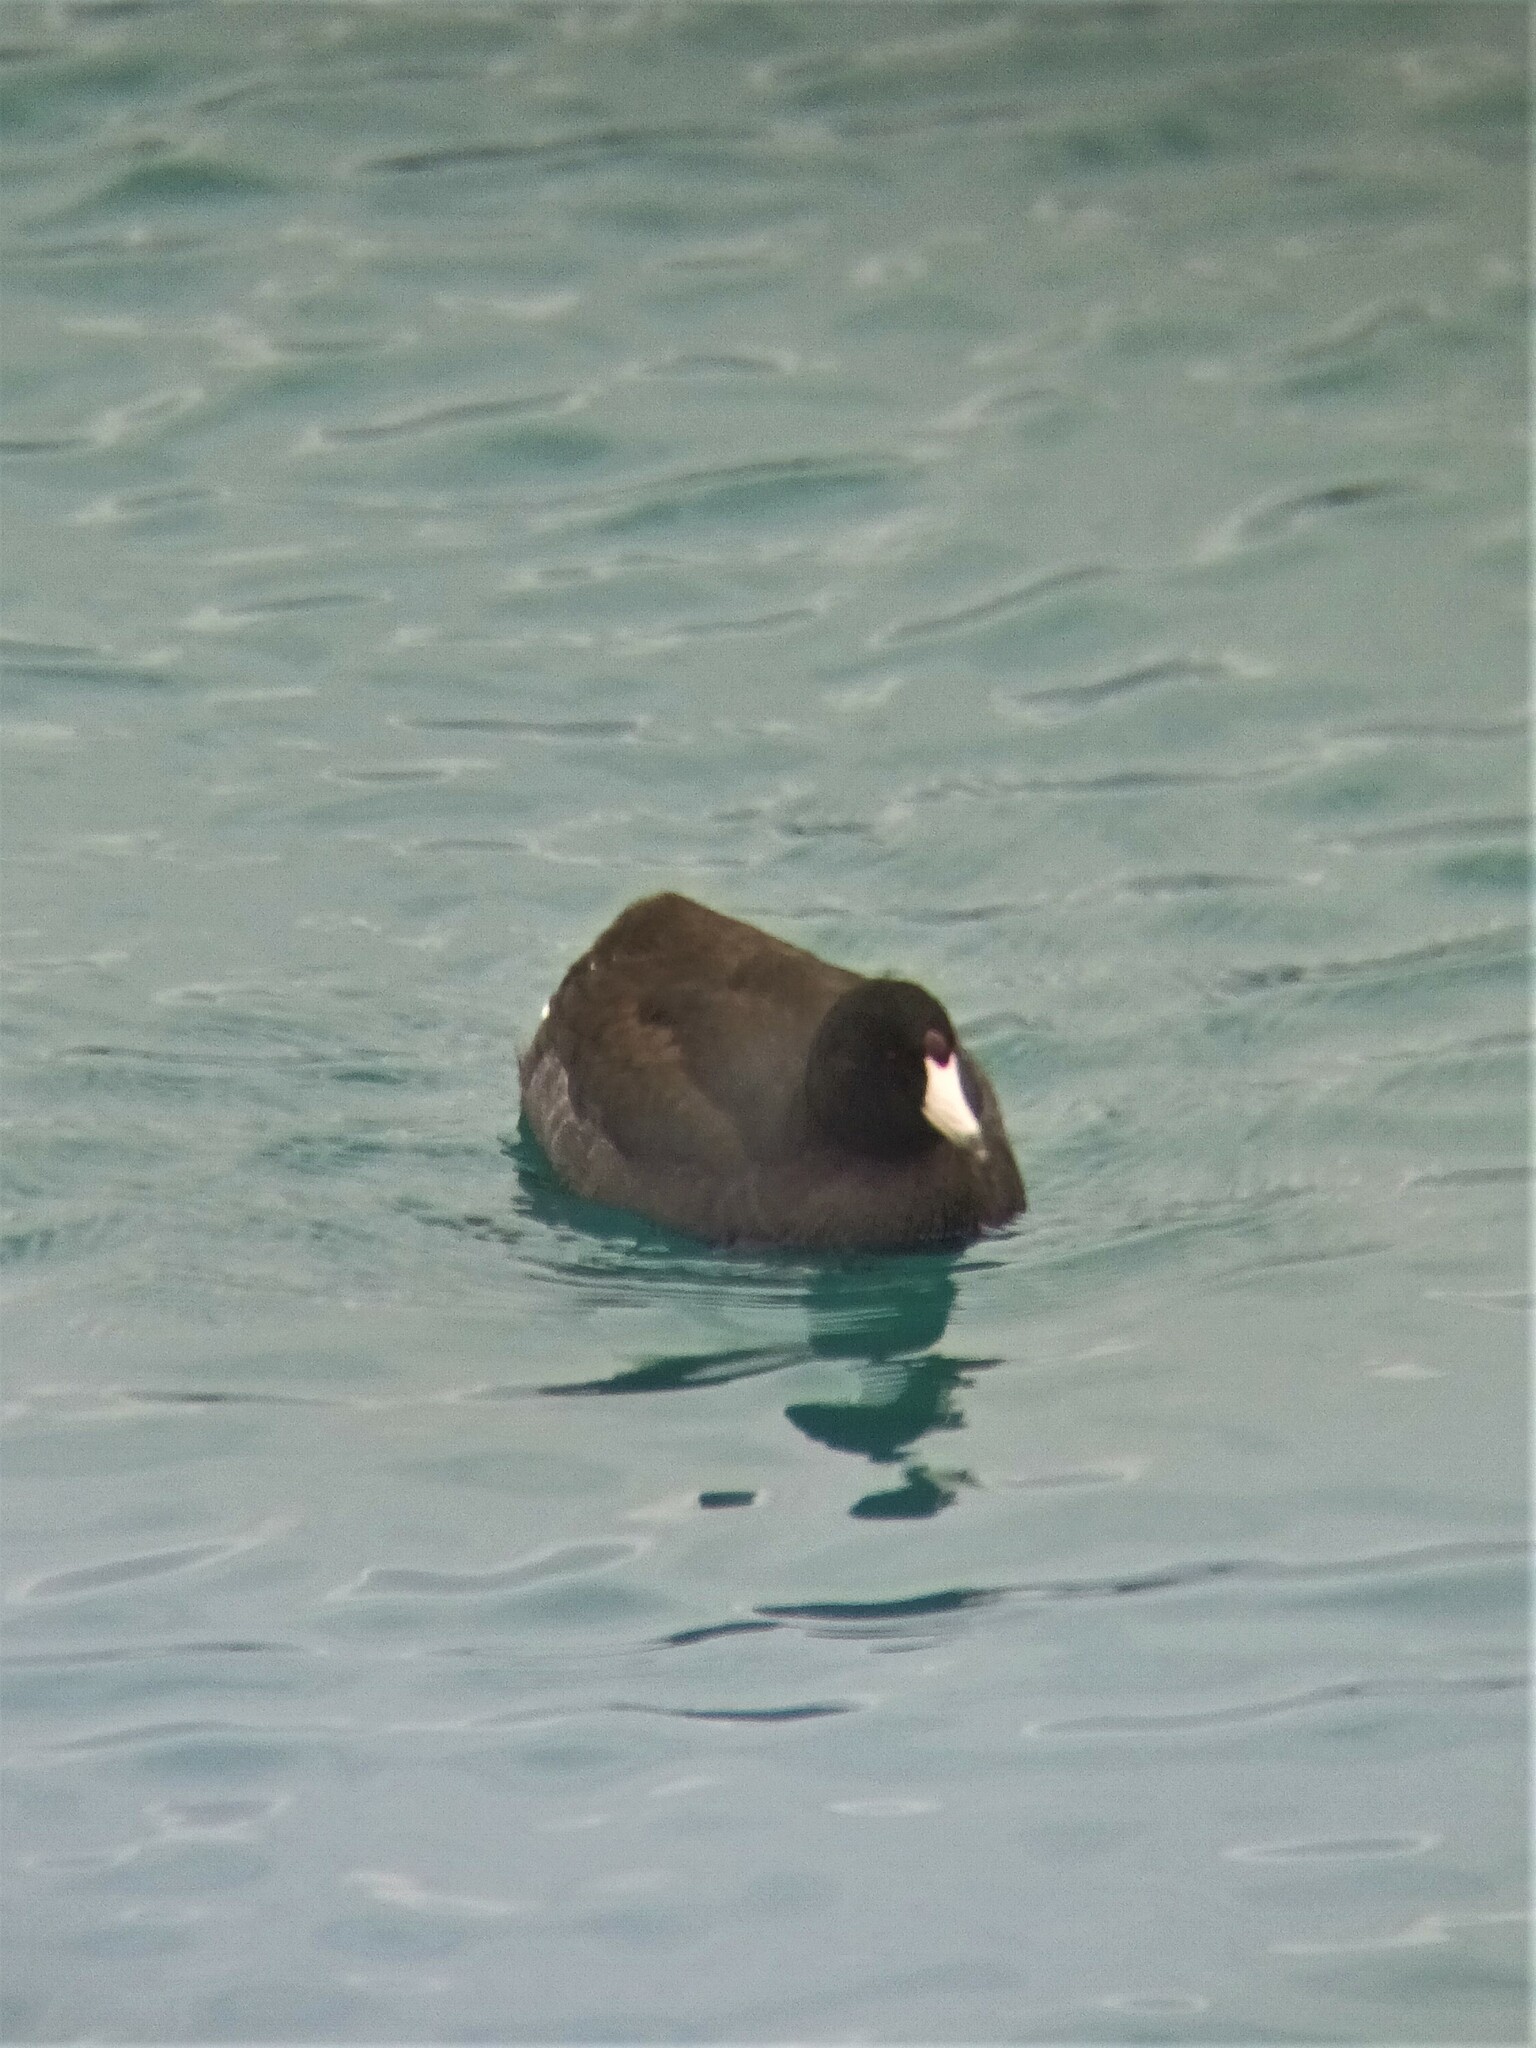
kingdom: Animalia
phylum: Chordata
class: Aves
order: Gruiformes
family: Rallidae
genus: Fulica
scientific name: Fulica americana
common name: American coot
